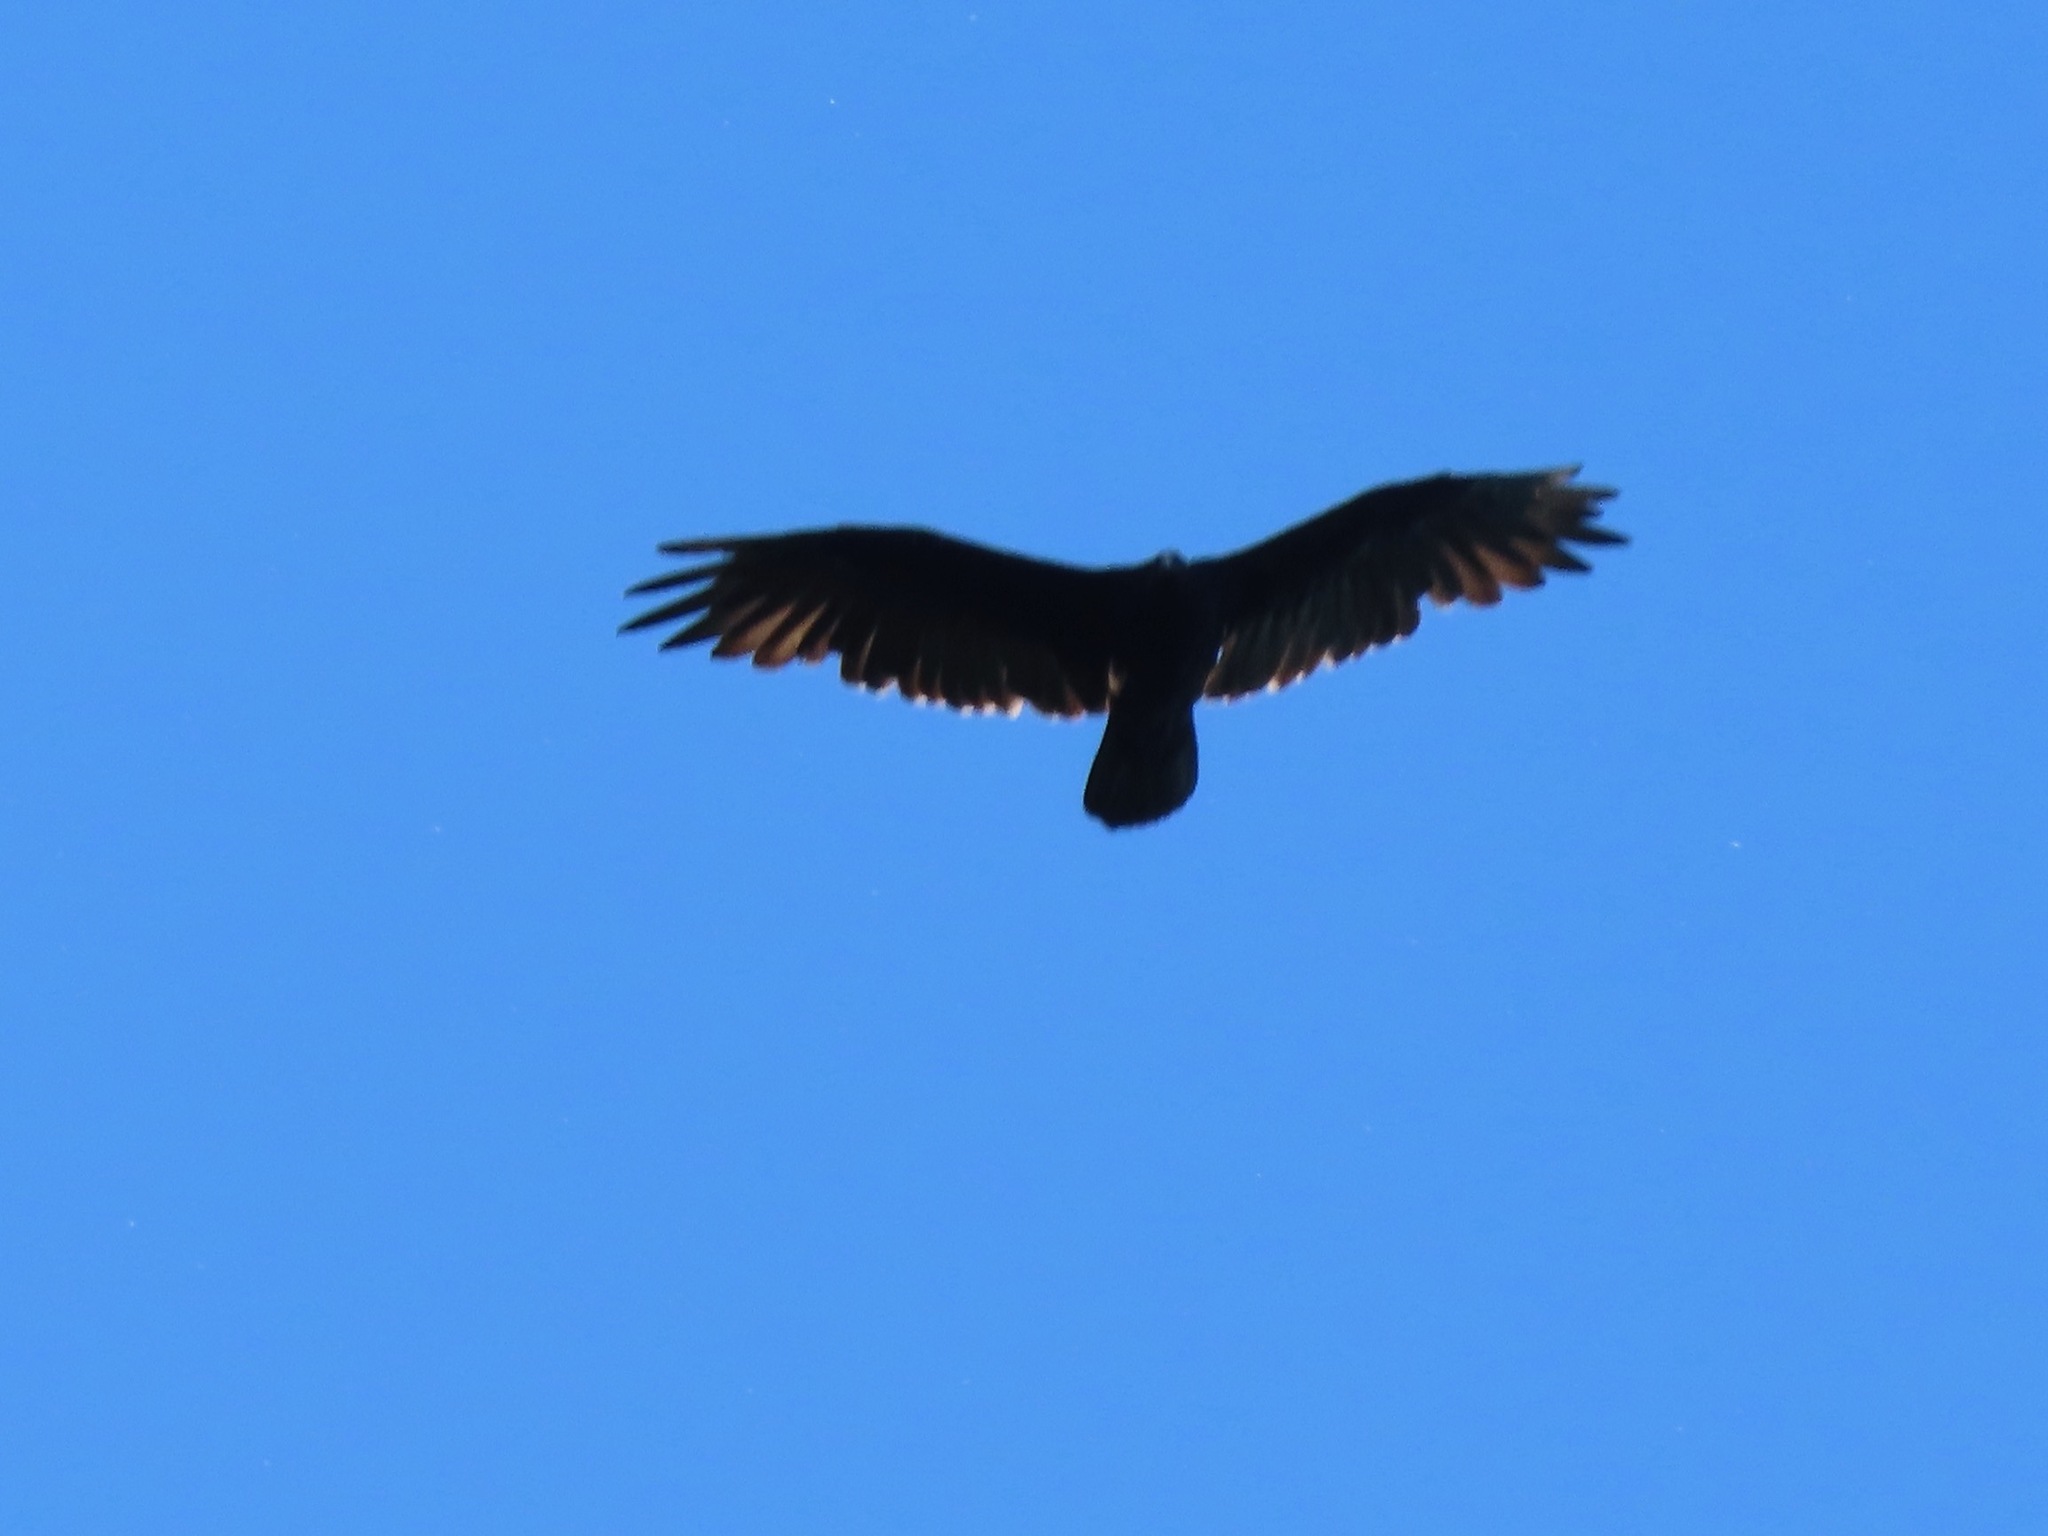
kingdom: Animalia
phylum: Chordata
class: Aves
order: Accipitriformes
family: Cathartidae
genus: Cathartes
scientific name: Cathartes aura
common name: Turkey vulture
